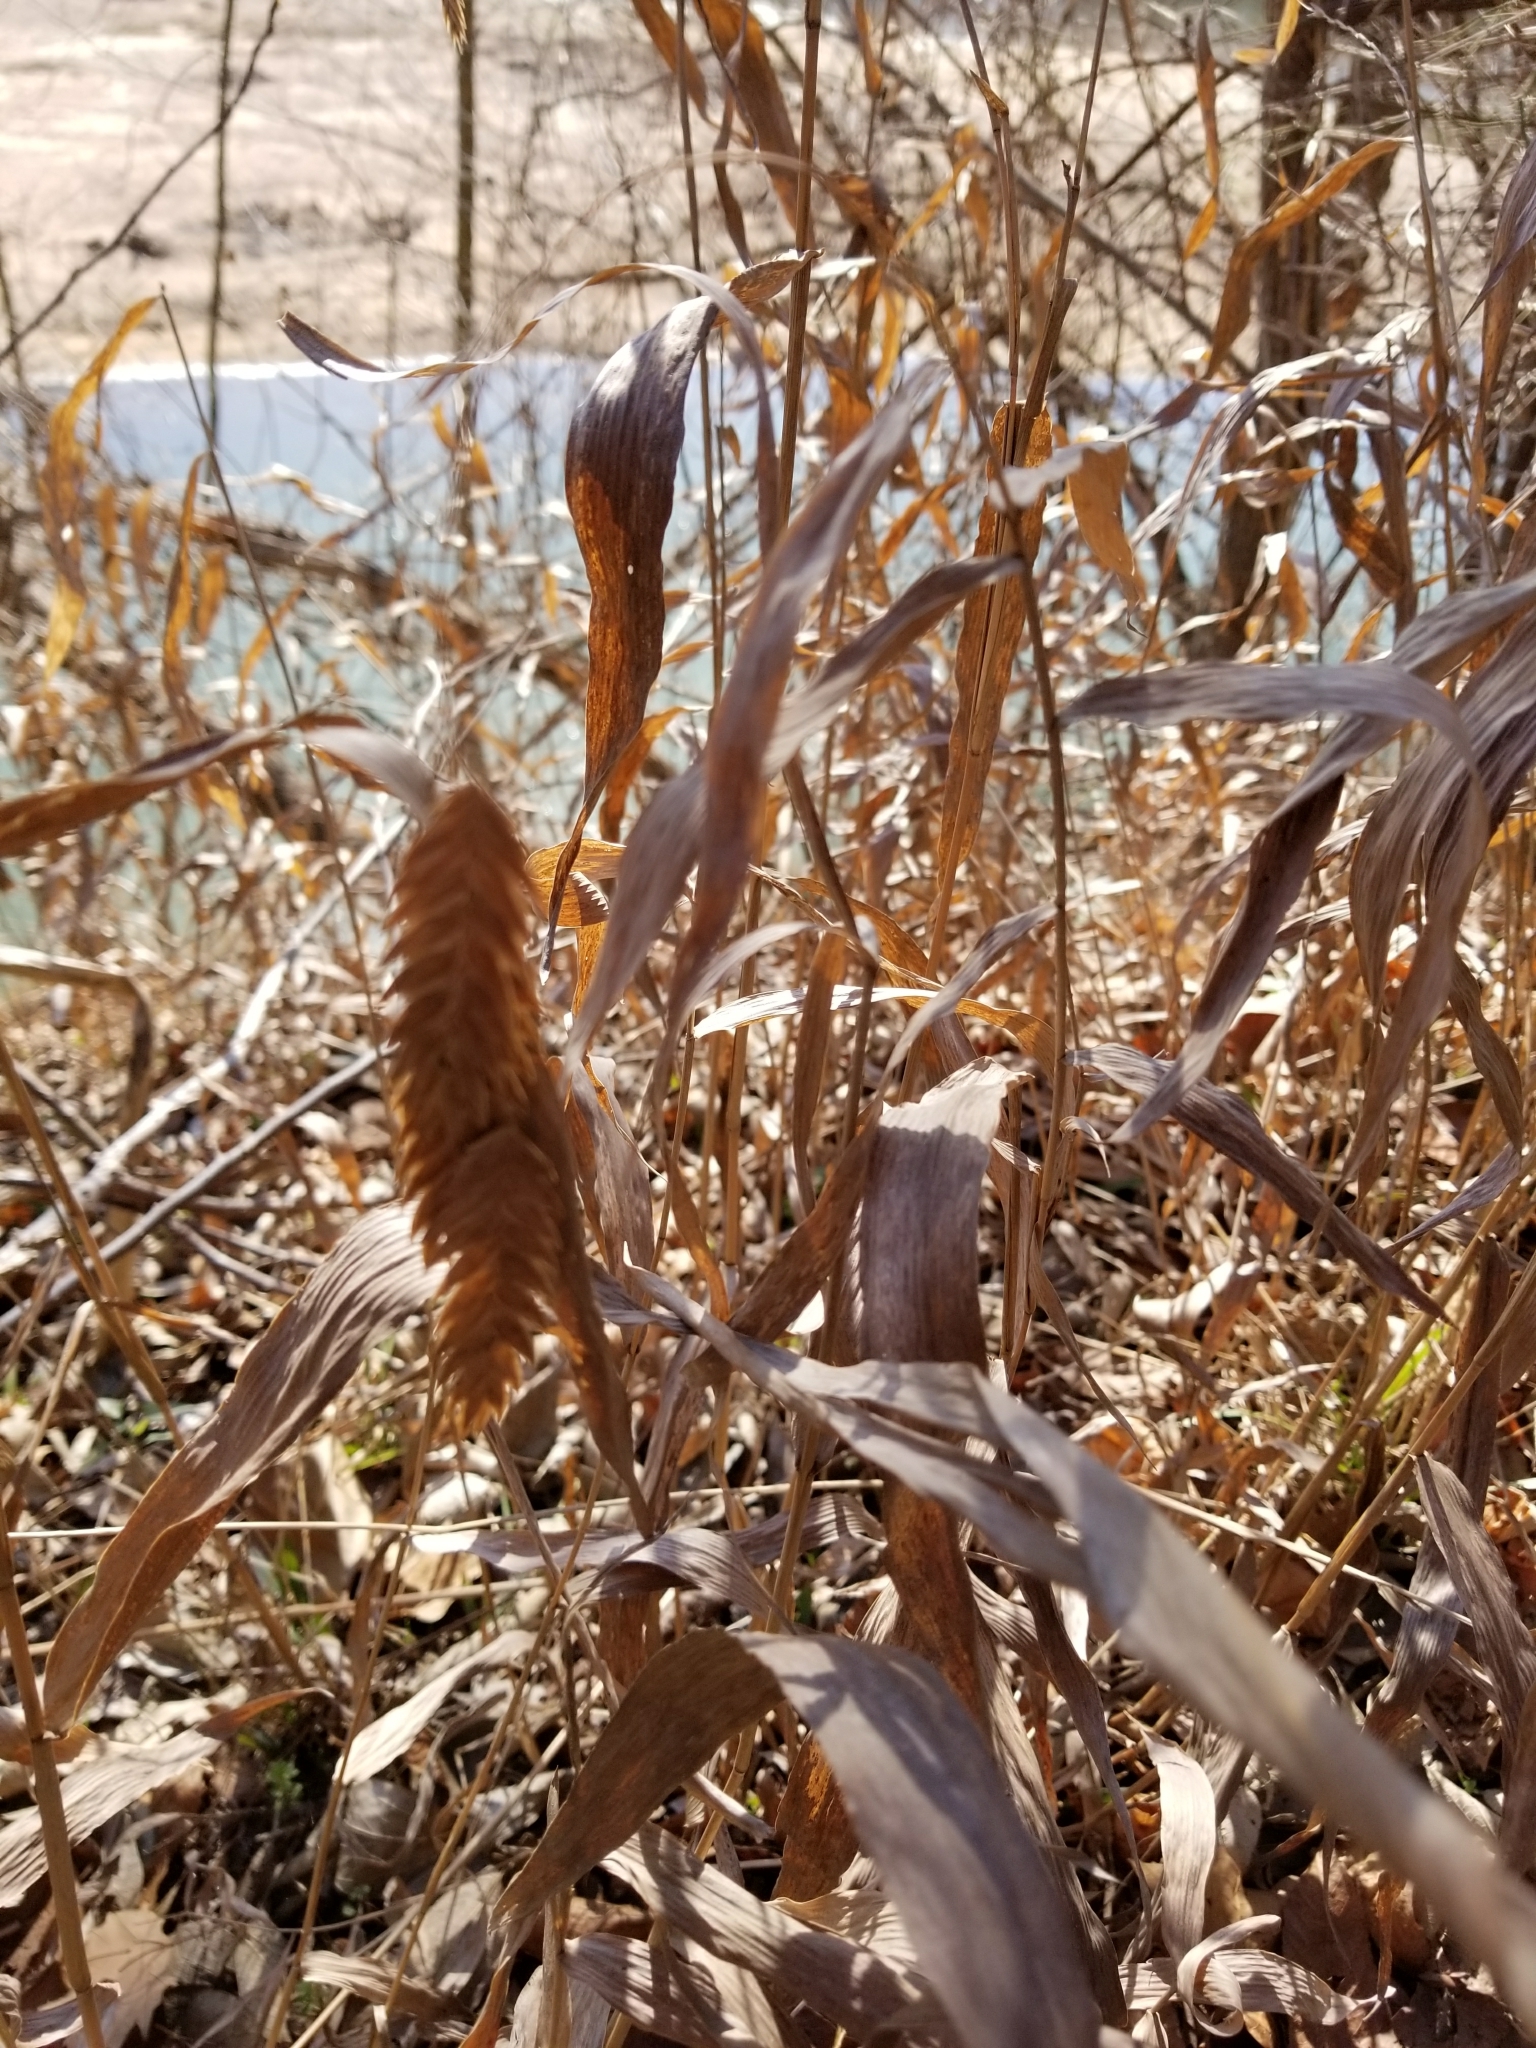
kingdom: Plantae
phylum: Tracheophyta
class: Liliopsida
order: Poales
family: Poaceae
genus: Chasmanthium
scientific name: Chasmanthium latifolium
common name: Broad-leaved chasmanthium
